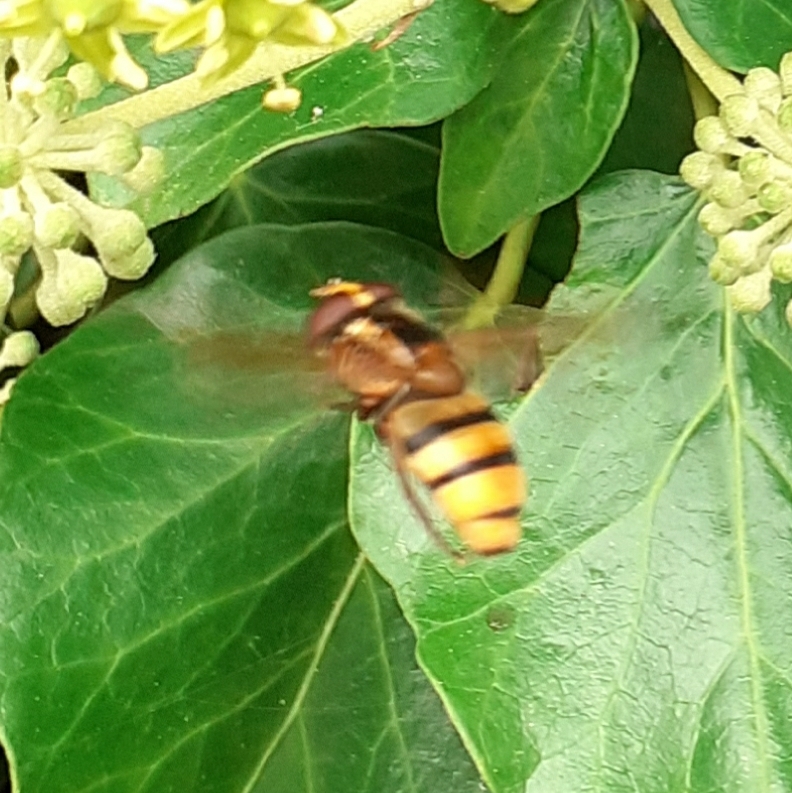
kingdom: Animalia
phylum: Arthropoda
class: Insecta
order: Diptera
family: Syrphidae
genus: Volucella
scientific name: Volucella zonaria
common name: Hornet hoverfly
